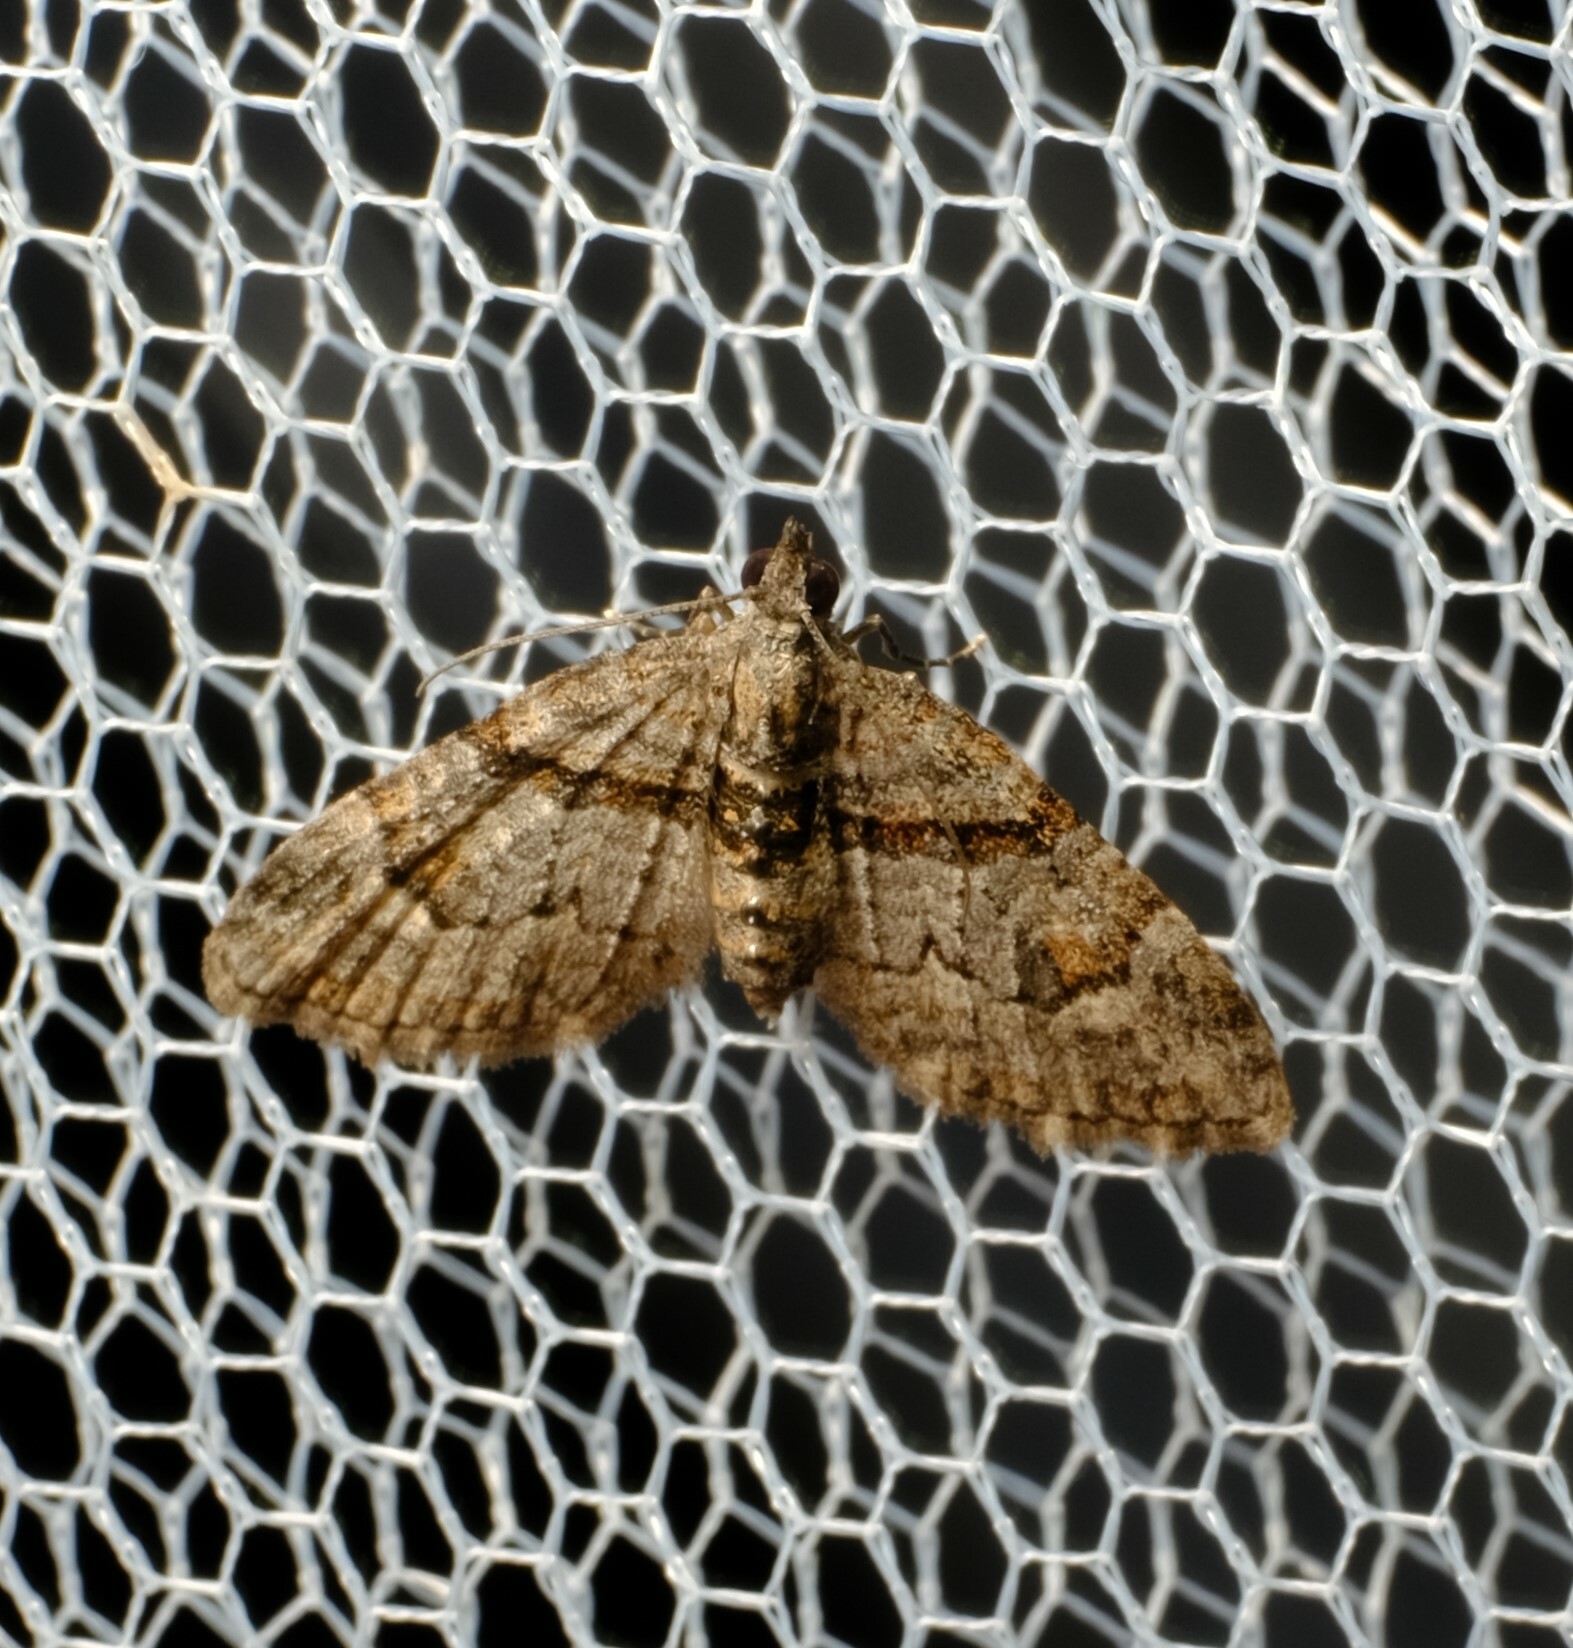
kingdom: Animalia
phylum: Arthropoda
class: Insecta
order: Lepidoptera
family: Geometridae
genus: Phrissogonus
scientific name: Phrissogonus laticostata
